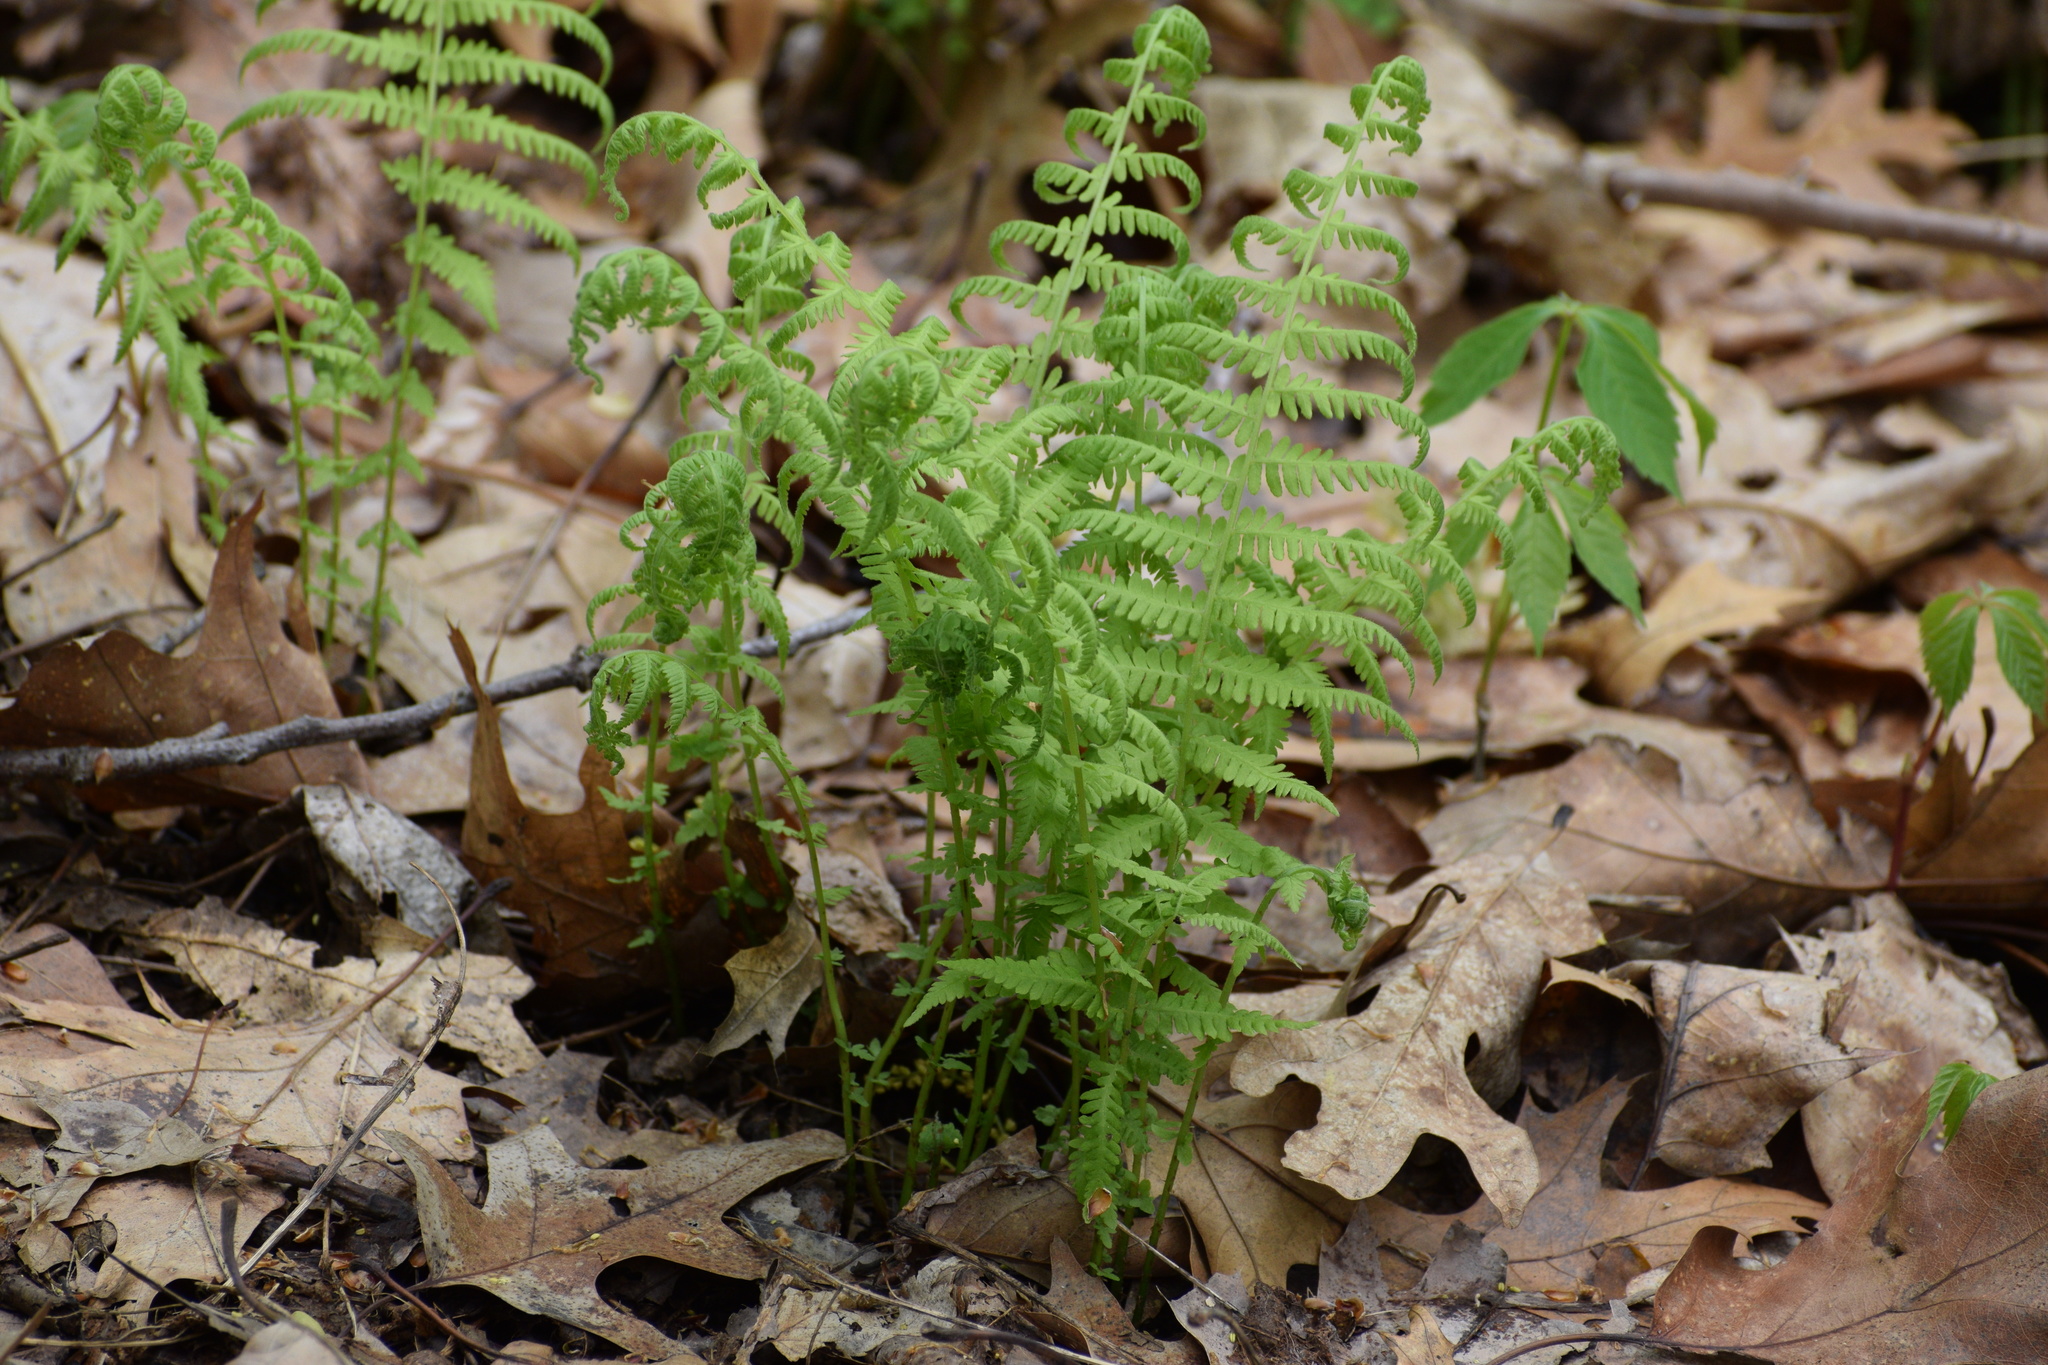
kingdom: Plantae
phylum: Tracheophyta
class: Polypodiopsida
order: Polypodiales
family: Thelypteridaceae
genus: Amauropelta
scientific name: Amauropelta noveboracensis
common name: New york fern
